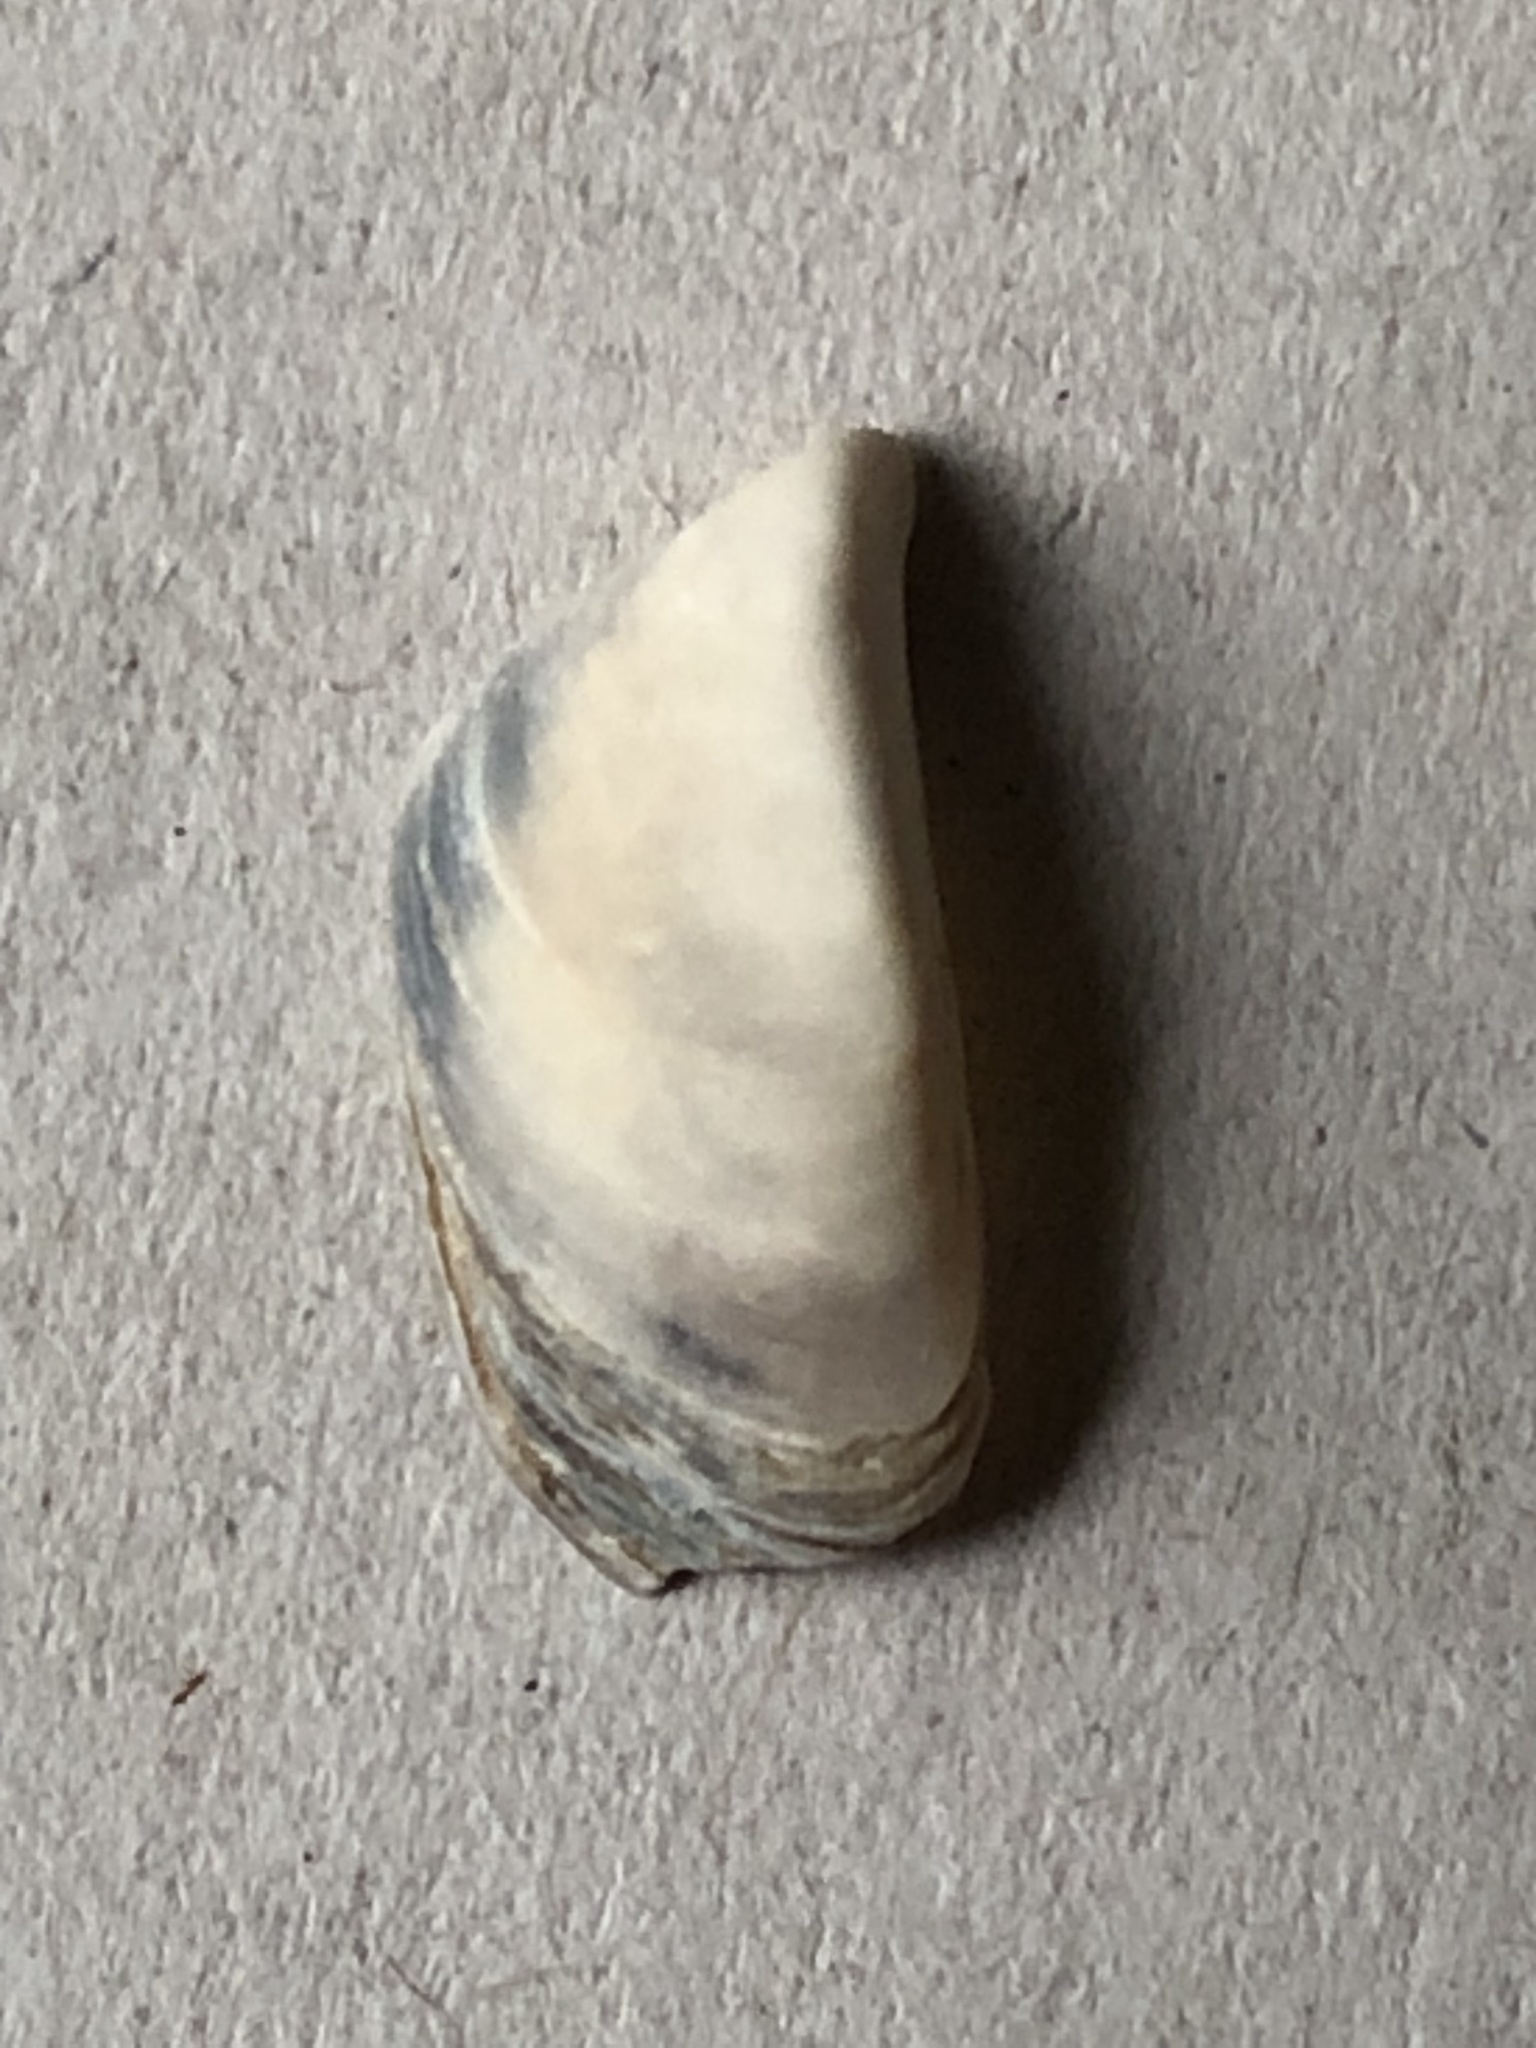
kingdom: Animalia
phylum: Mollusca
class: Bivalvia
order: Myida
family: Dreissenidae
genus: Dreissena
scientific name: Dreissena polymorpha
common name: Zebra mussel
